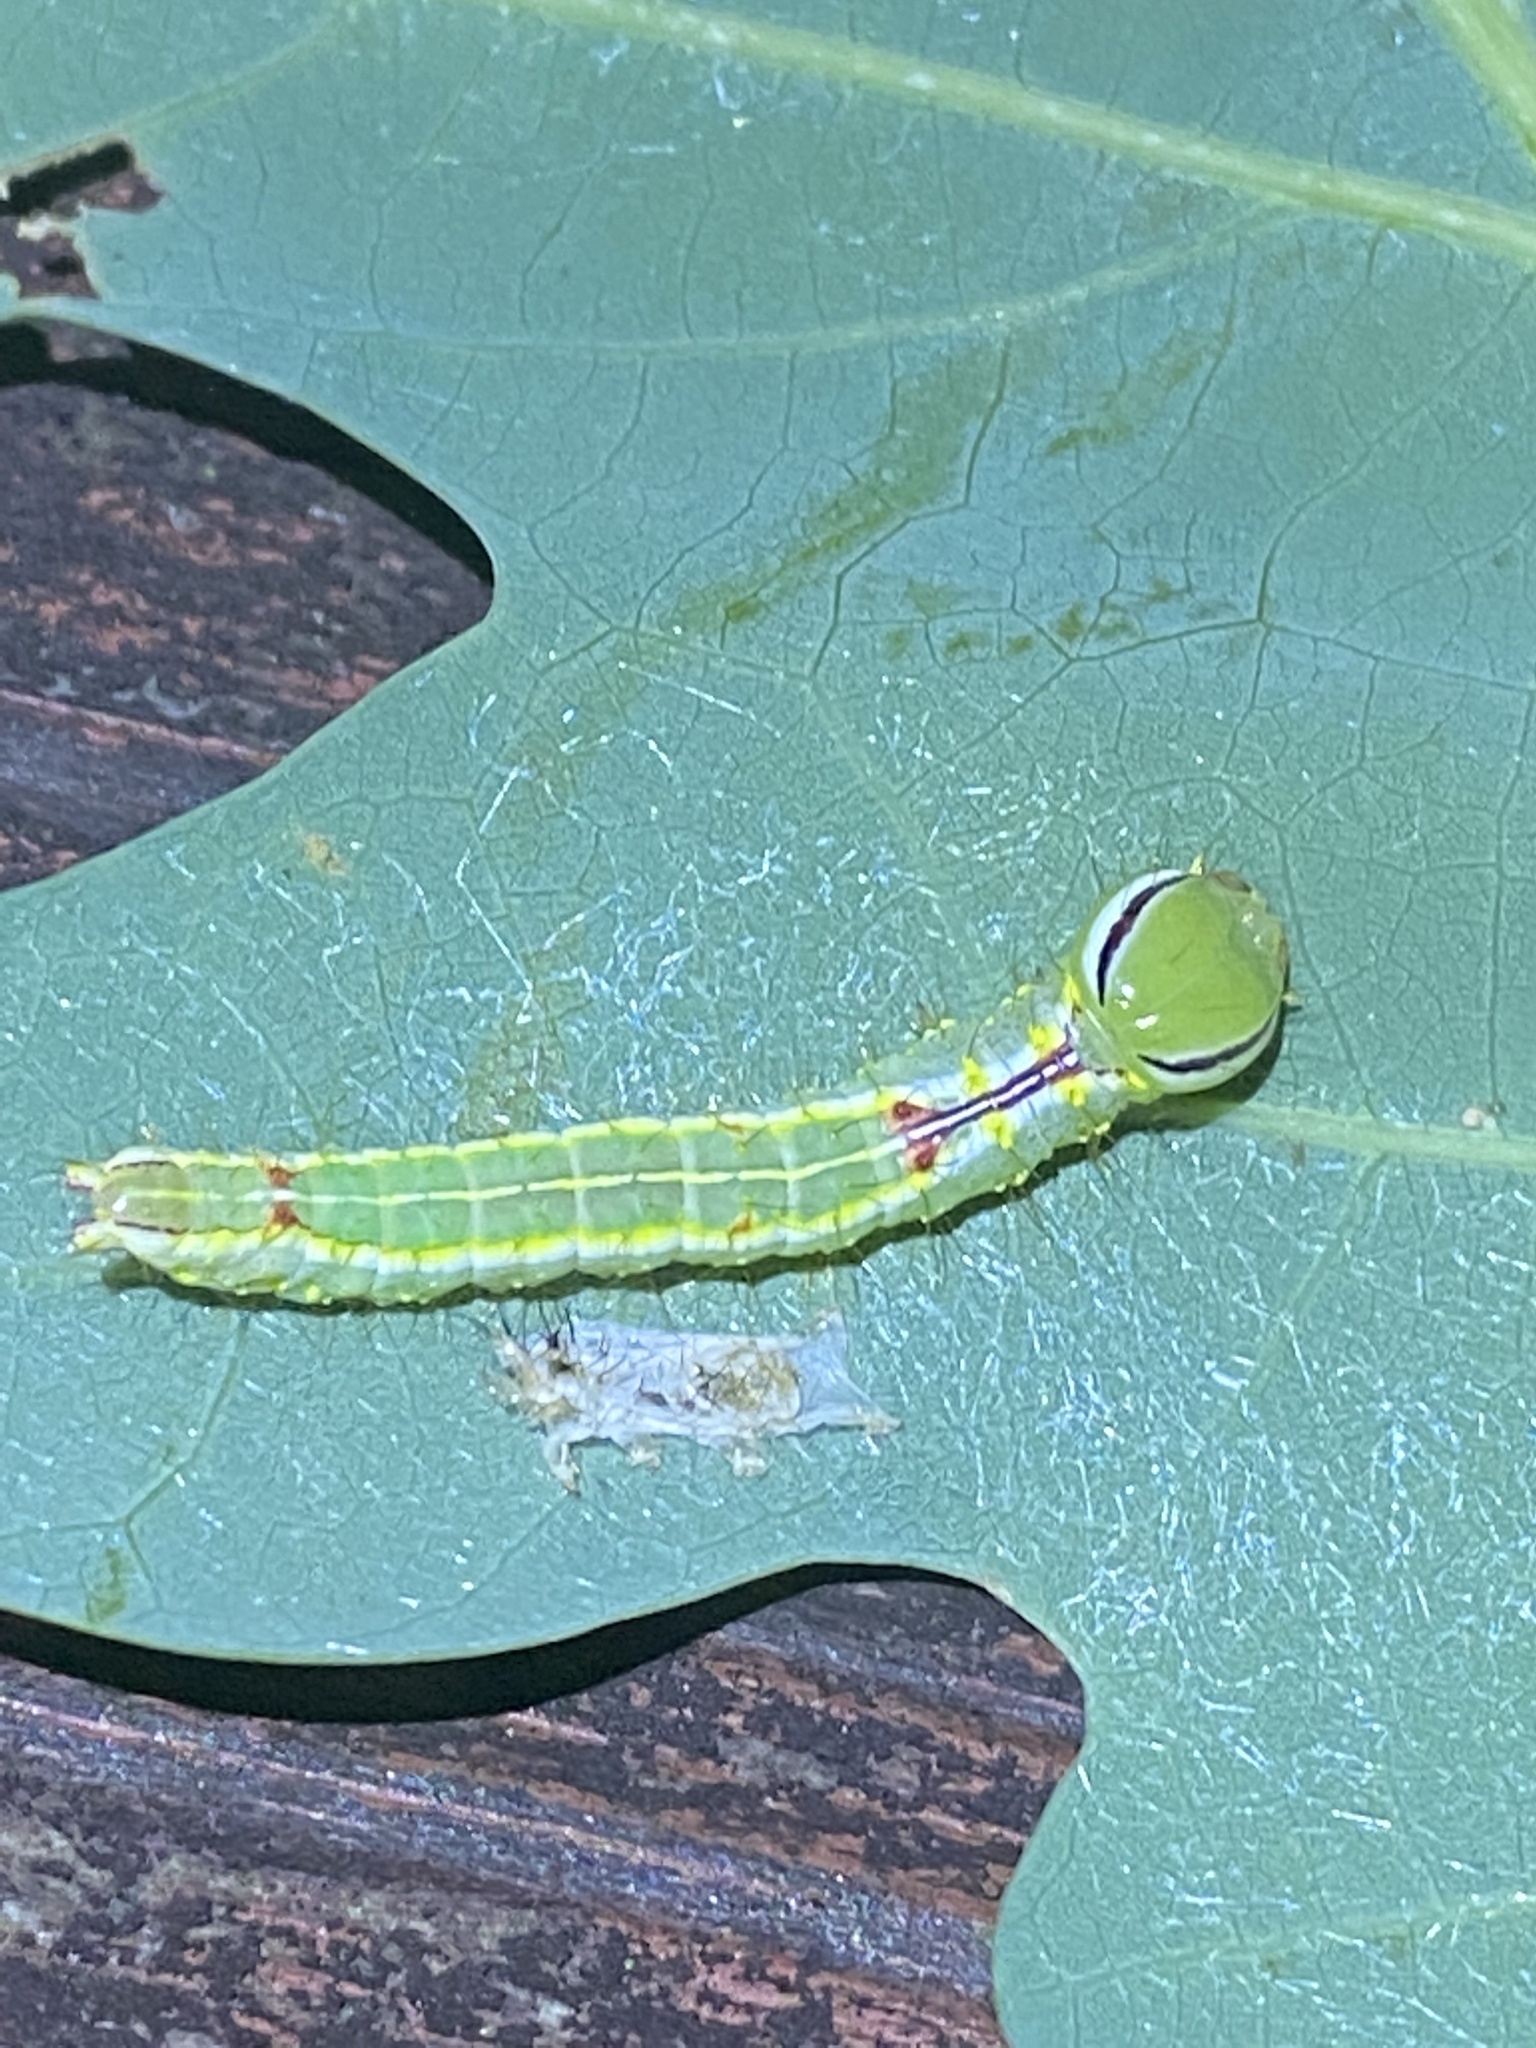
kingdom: Animalia
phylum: Arthropoda
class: Insecta
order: Lepidoptera
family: Notodontidae
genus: Lochmaeus
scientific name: Lochmaeus manteo
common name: Variable oakleaf caterpillar moth
